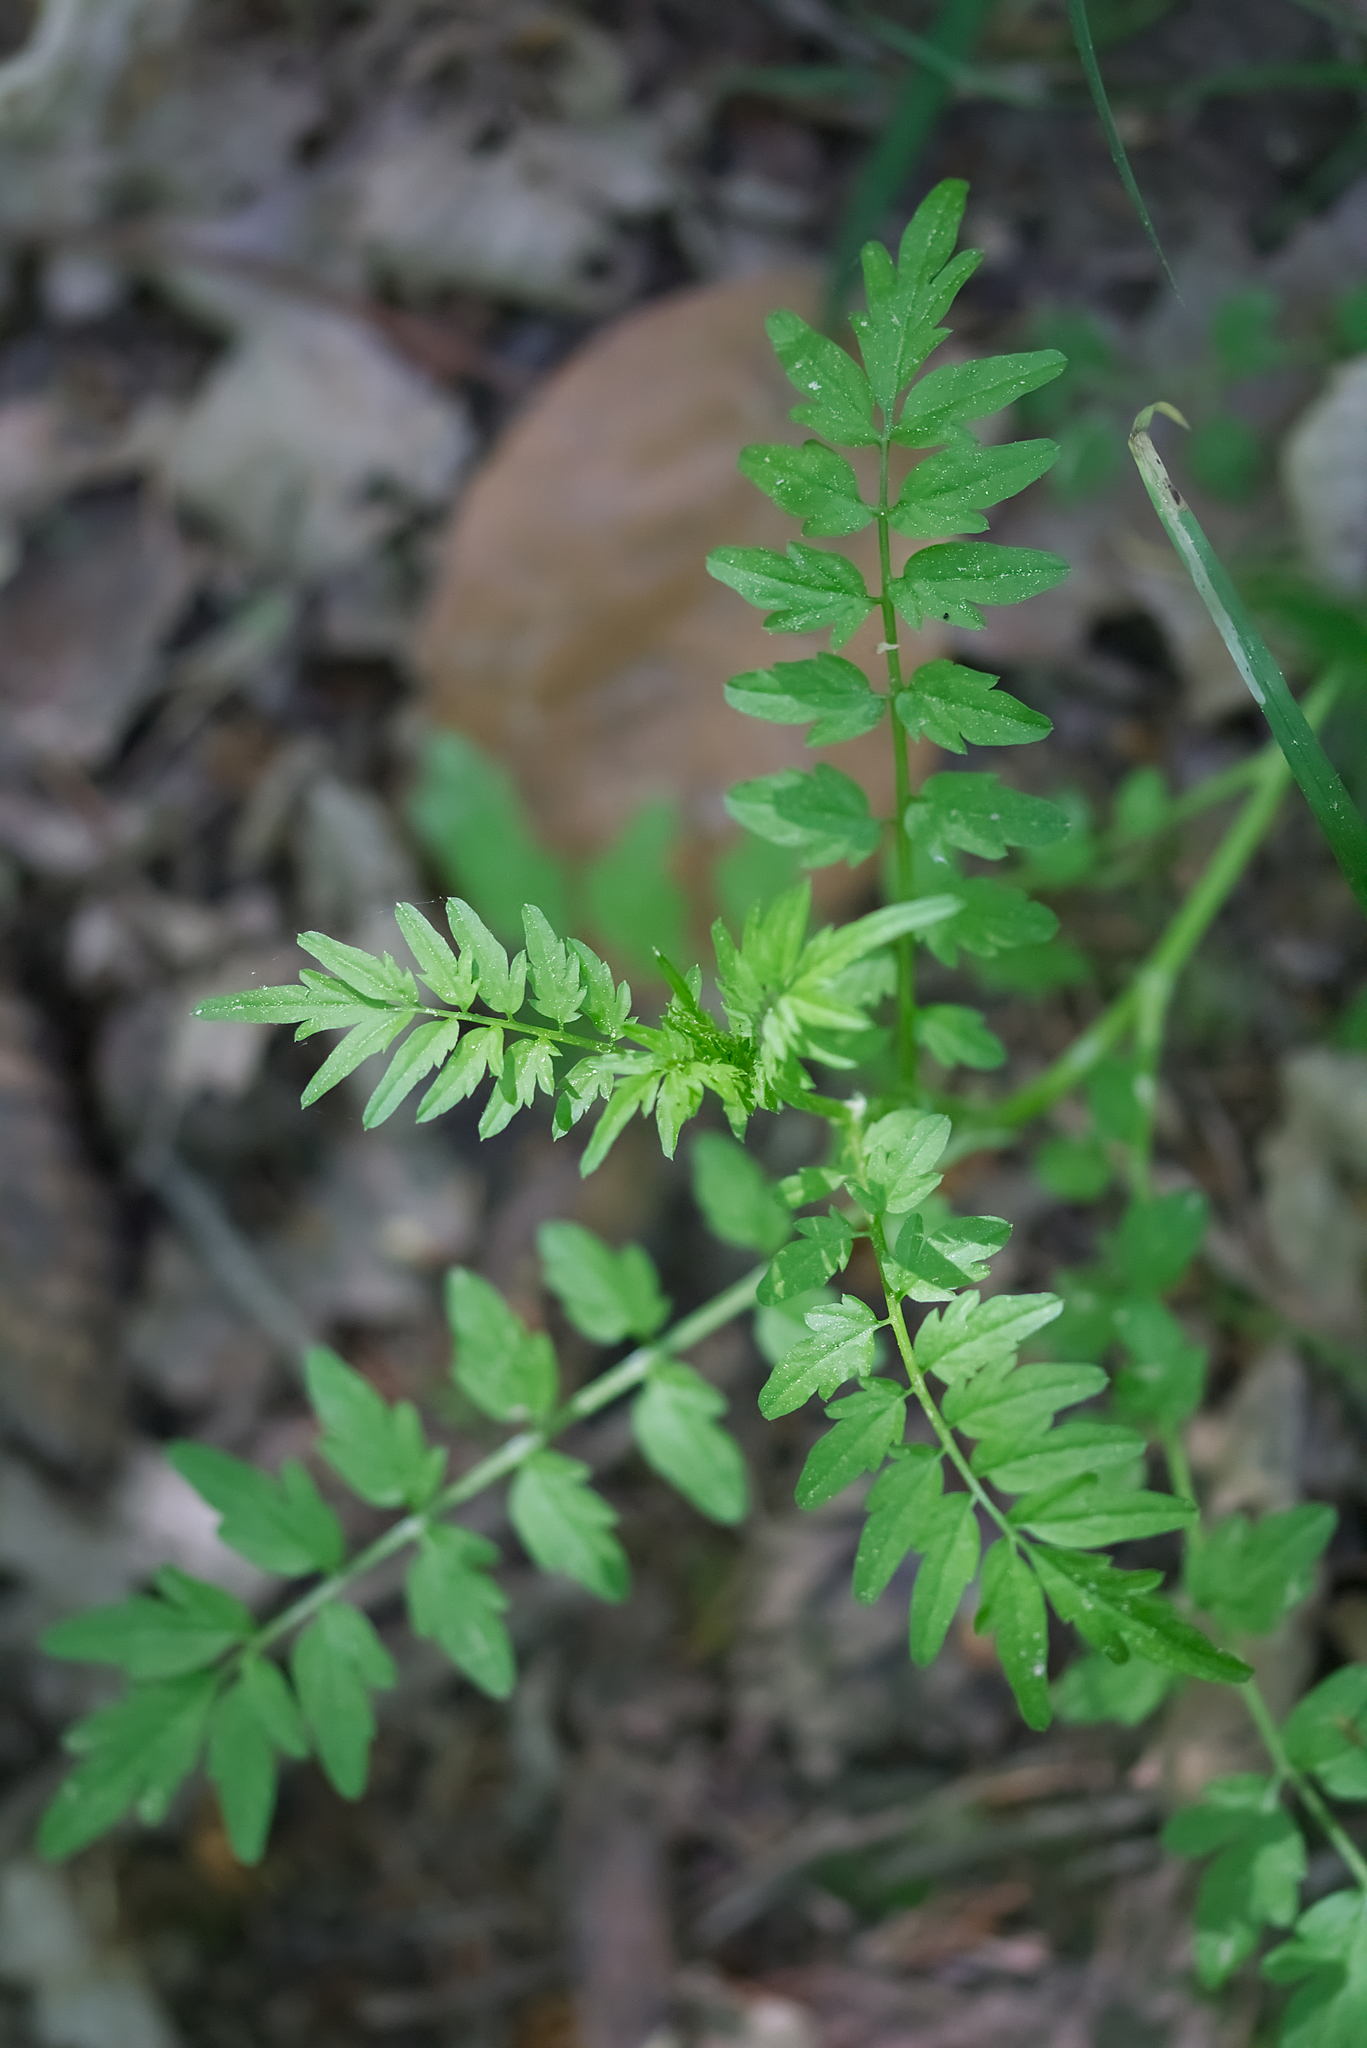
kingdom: Plantae
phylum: Tracheophyta
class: Magnoliopsida
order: Brassicales
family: Brassicaceae
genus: Cardamine
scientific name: Cardamine impatiens
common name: Narrow-leaved bitter-cress
